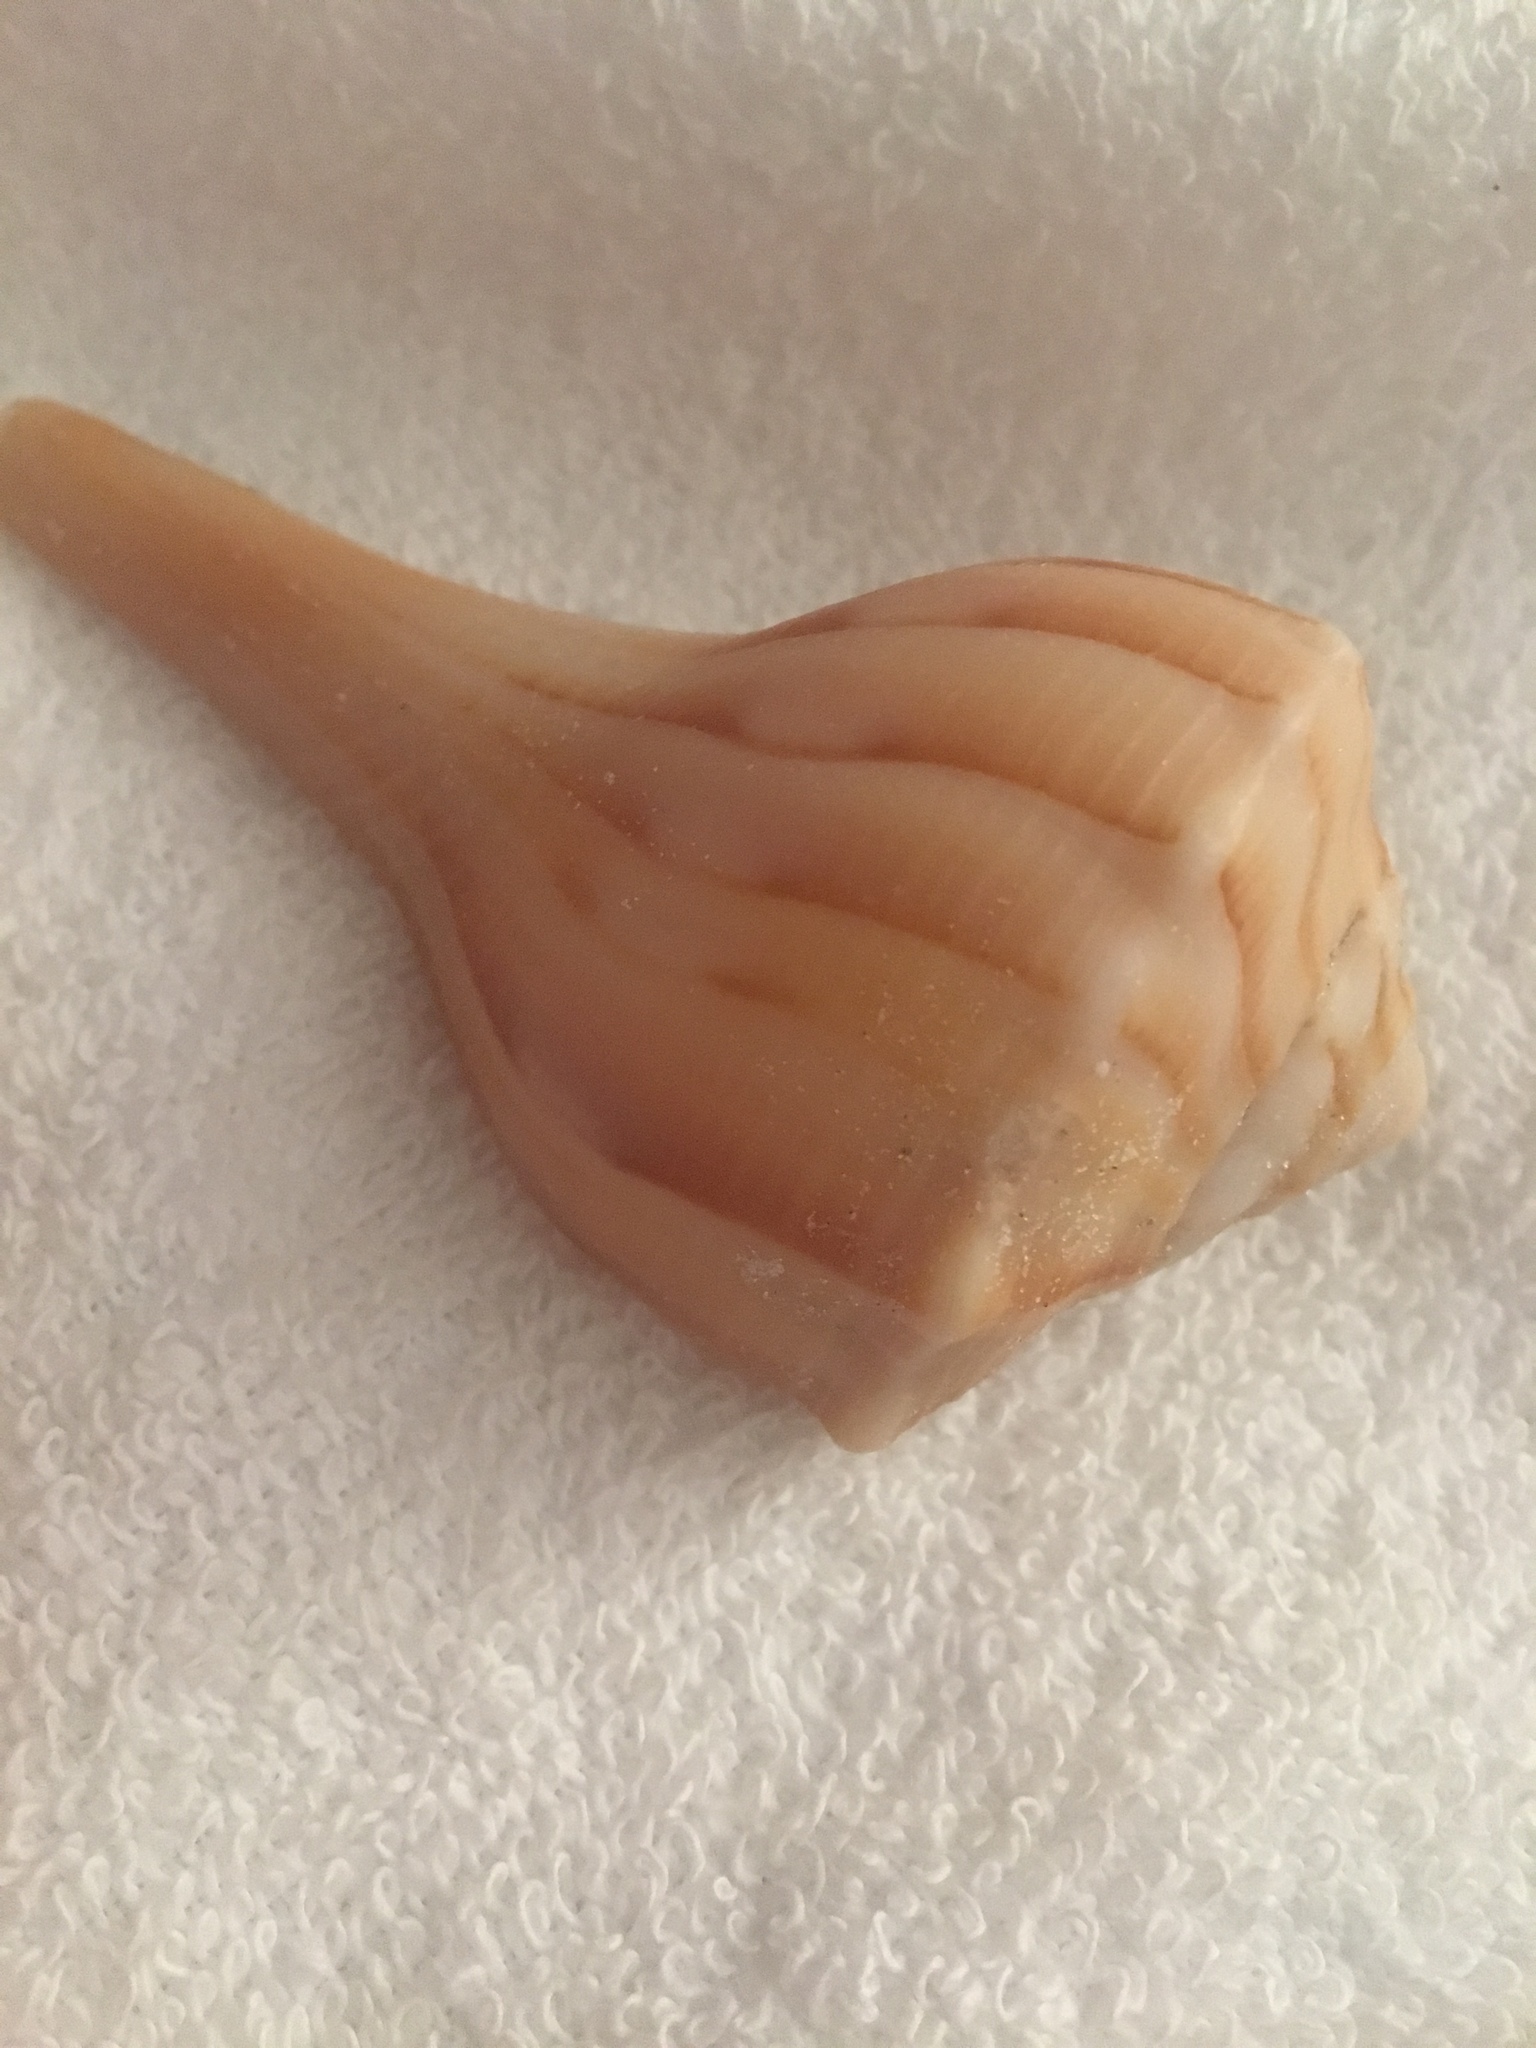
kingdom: Animalia
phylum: Mollusca
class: Gastropoda
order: Neogastropoda
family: Busyconidae
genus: Sinistrofulgur
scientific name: Sinistrofulgur sinistrum
